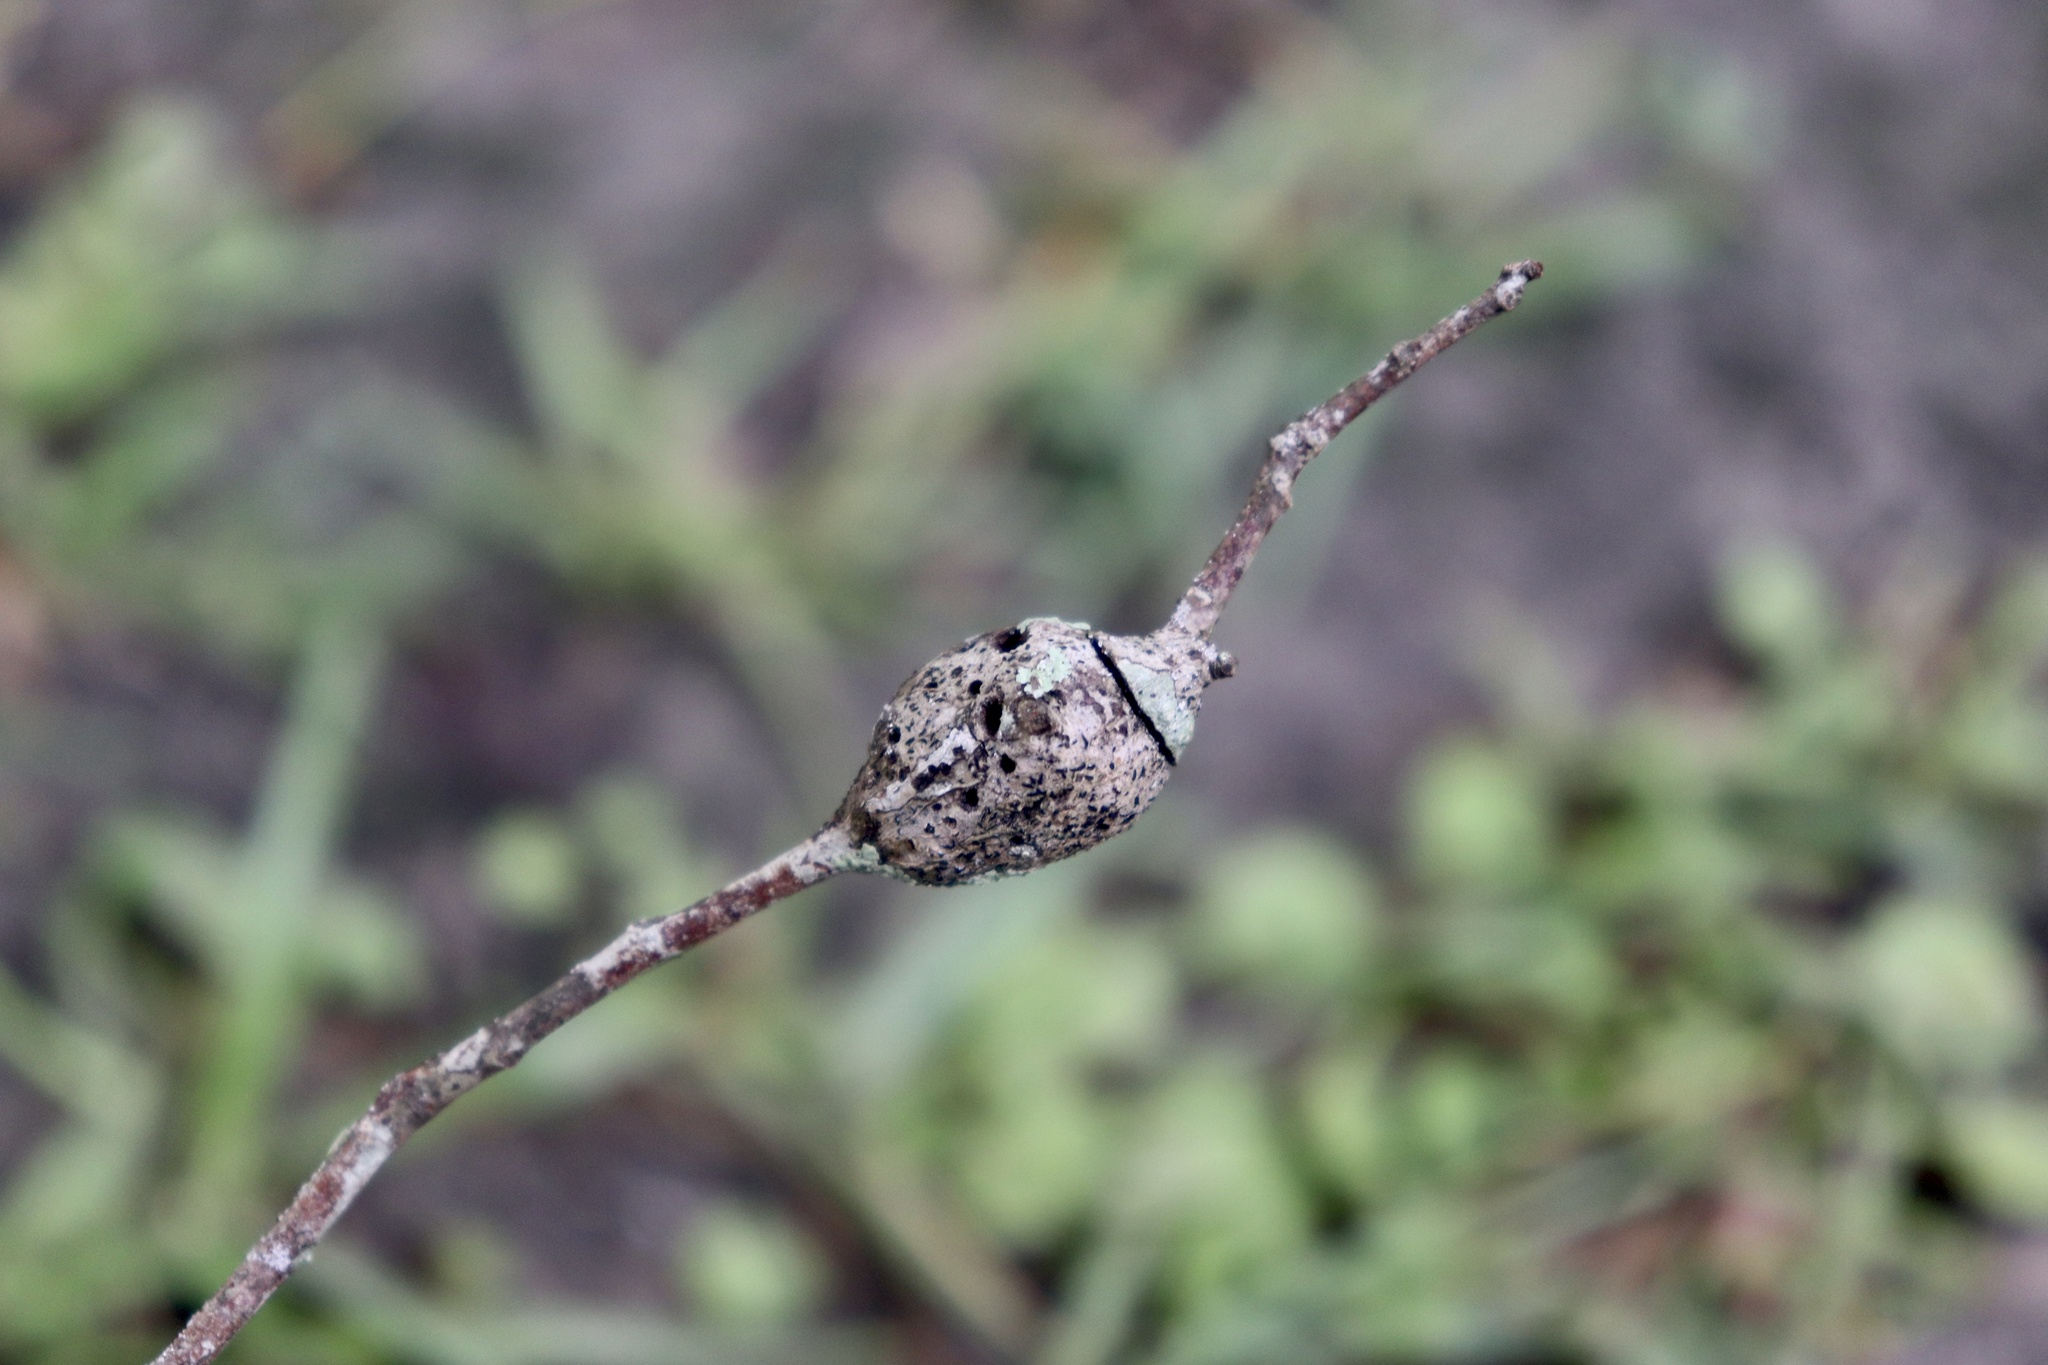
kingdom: Animalia
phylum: Arthropoda
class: Insecta
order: Hymenoptera
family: Cynipidae
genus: Callirhytis
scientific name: Callirhytis
